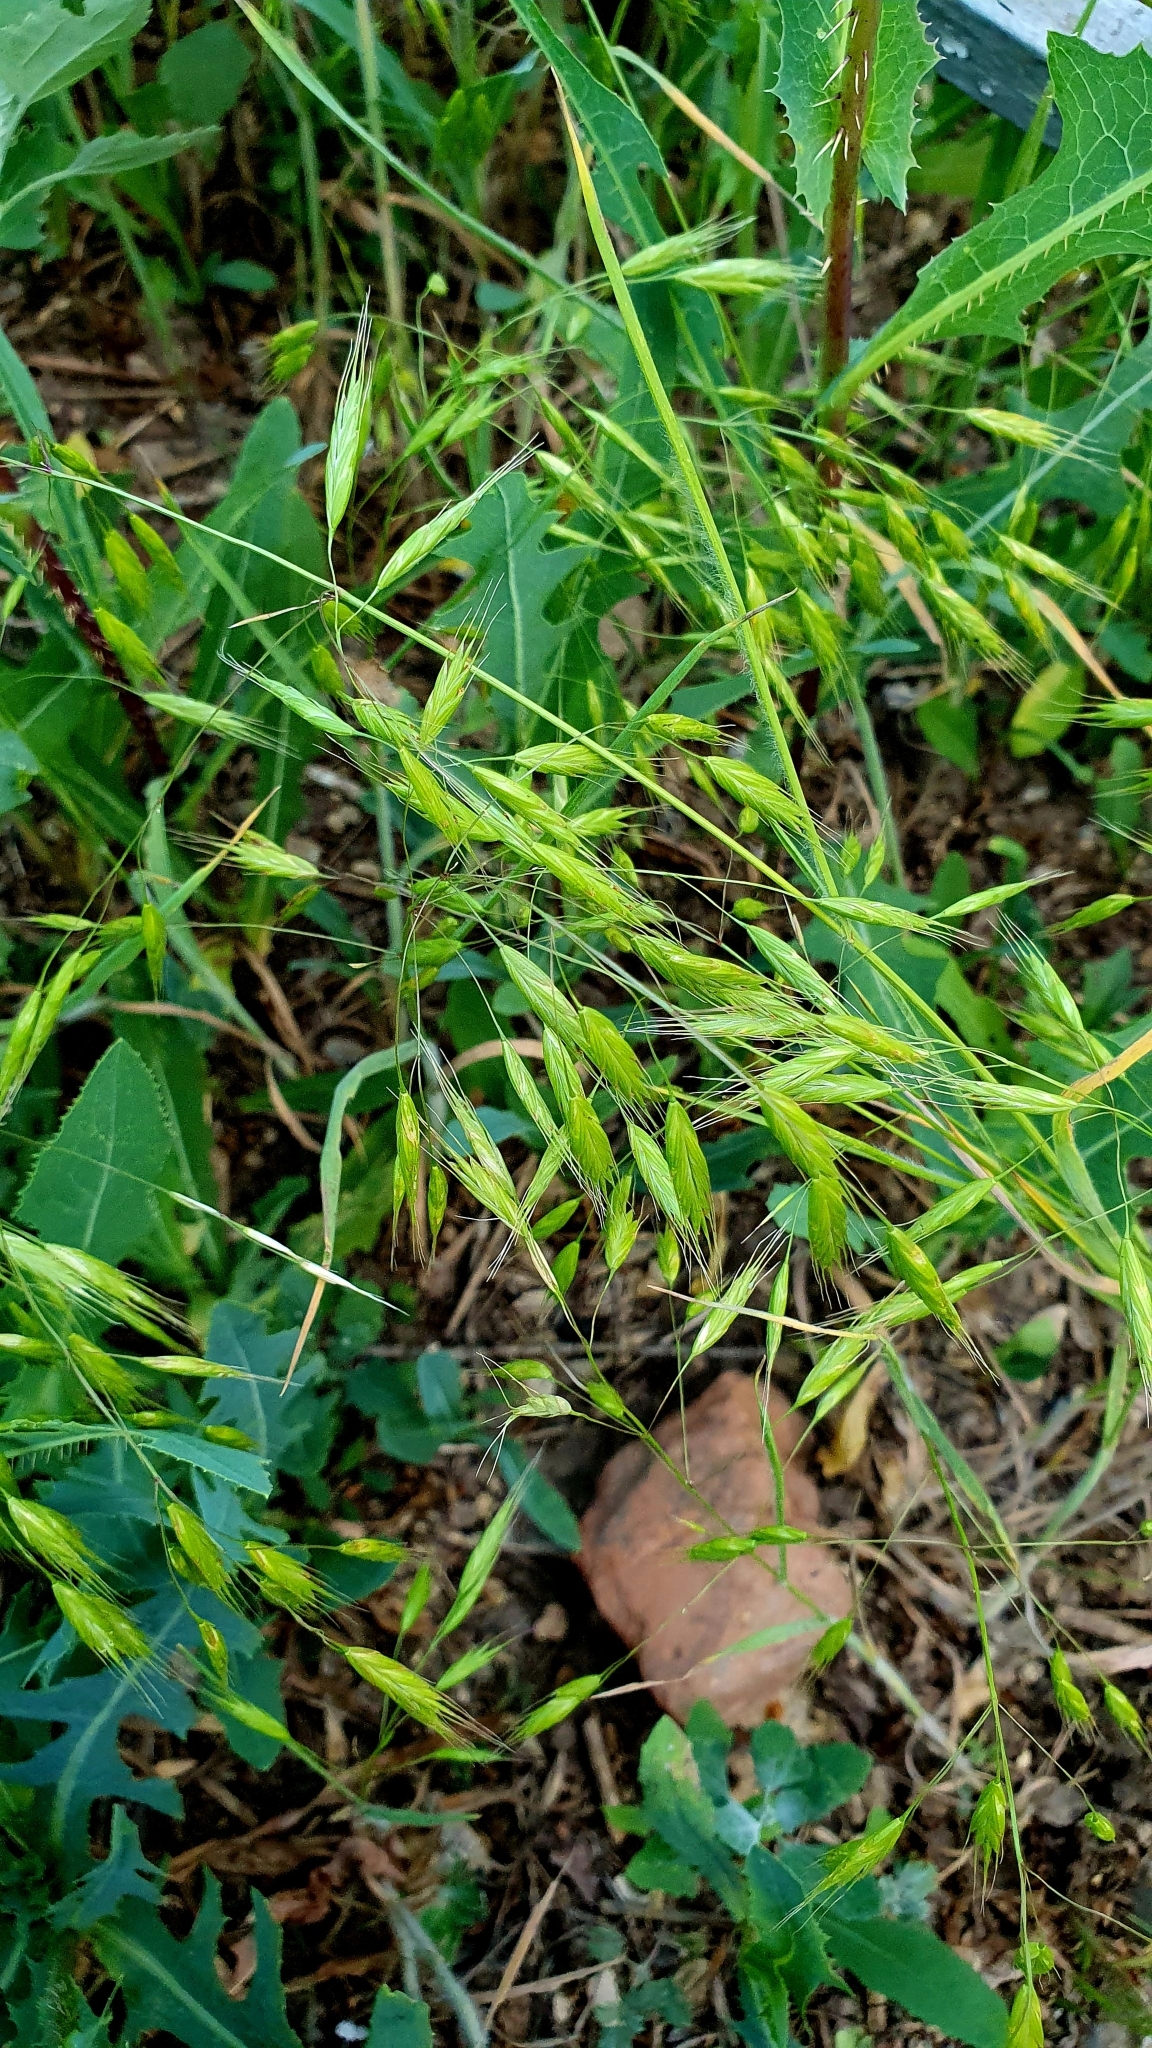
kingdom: Plantae
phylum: Tracheophyta
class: Liliopsida
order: Poales
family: Poaceae
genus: Bromus
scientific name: Bromus squarrosus
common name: Corn brome
